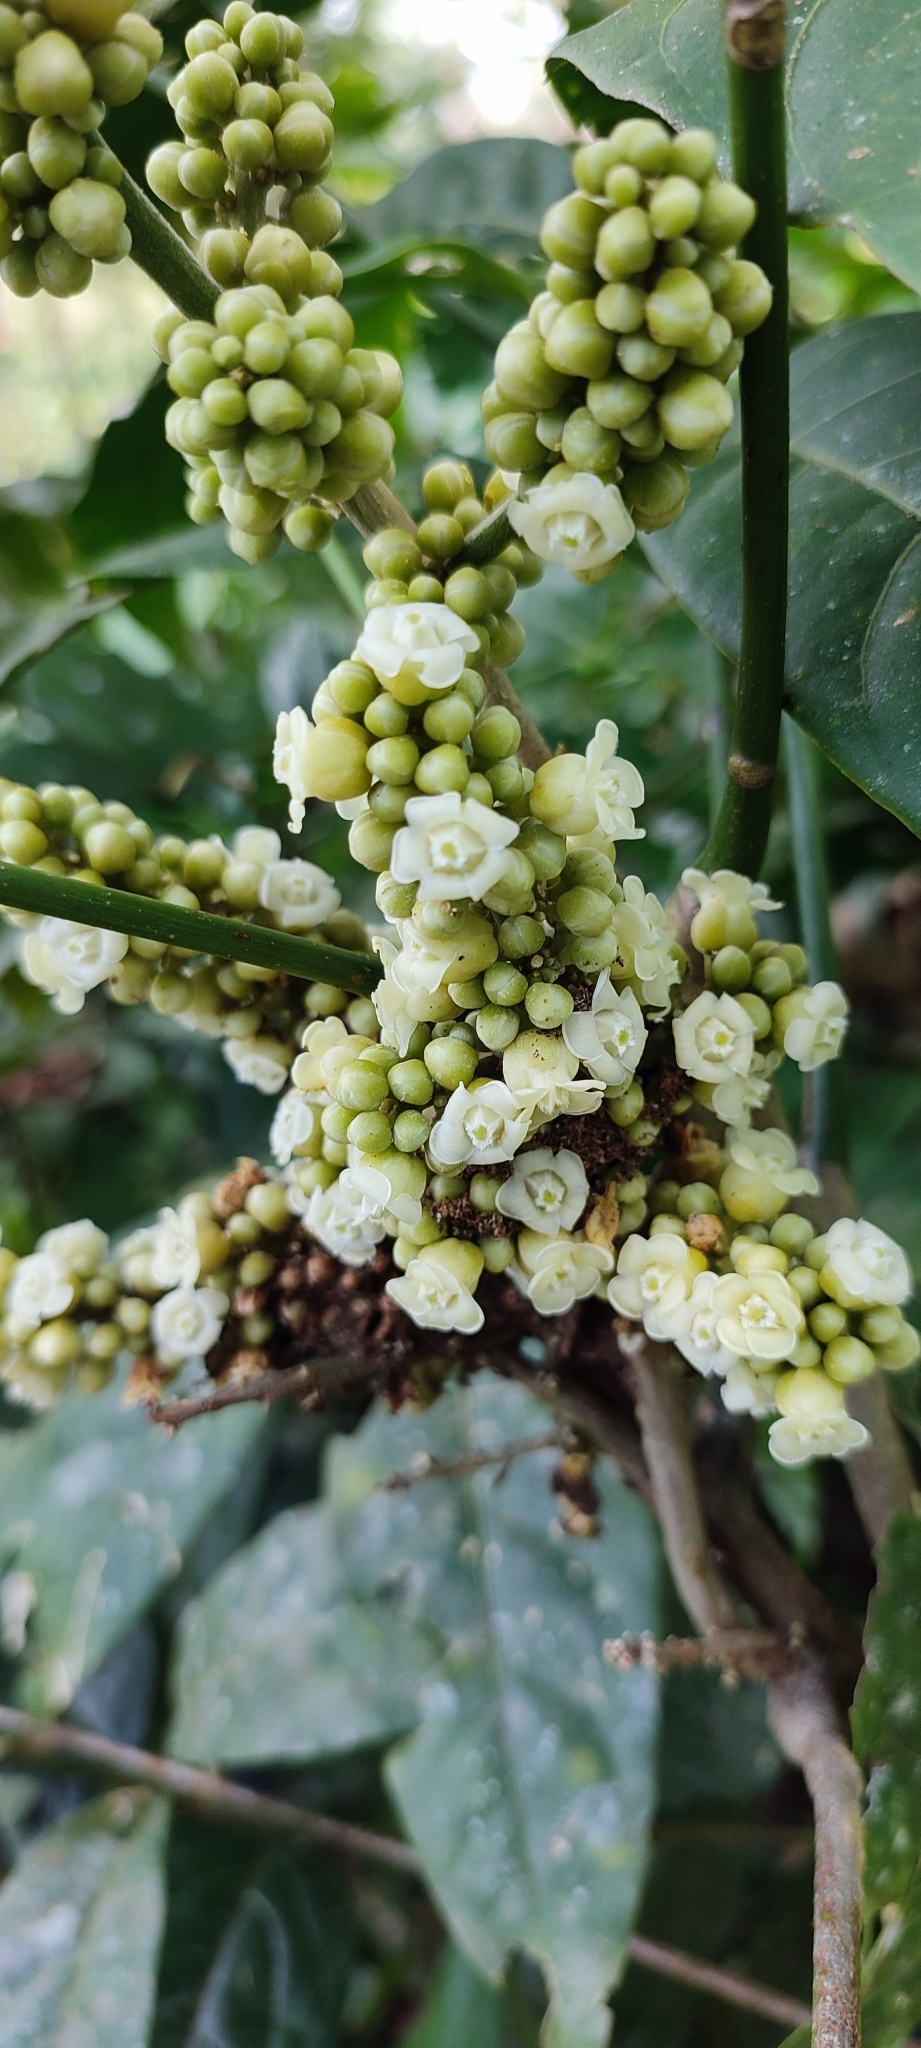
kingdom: Plantae
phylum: Tracheophyta
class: Magnoliopsida
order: Sapindales
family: Sapindaceae
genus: Lepisanthes
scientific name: Lepisanthes erecta
